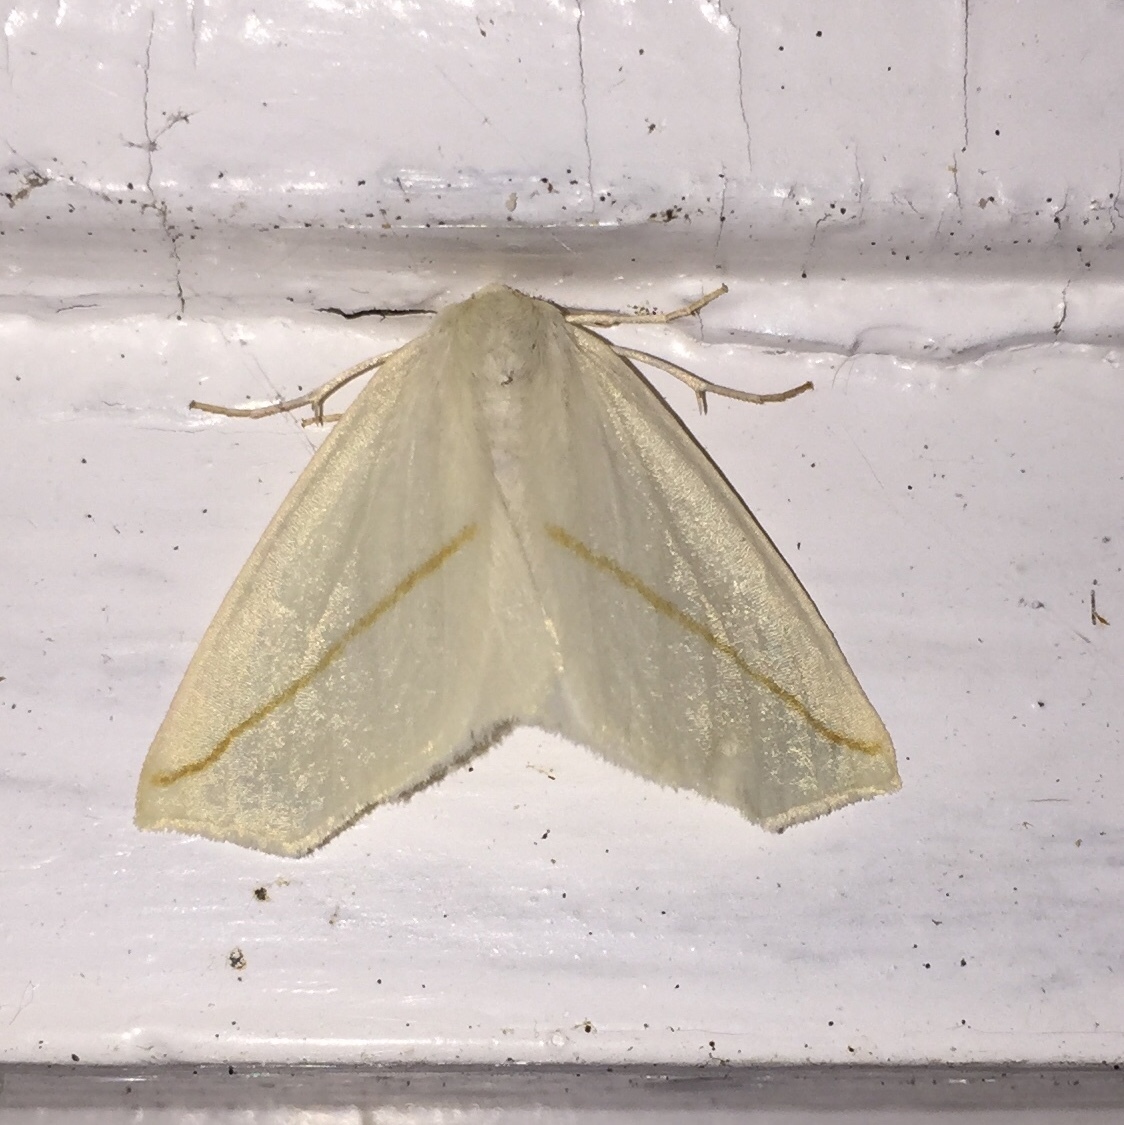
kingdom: Animalia
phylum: Arthropoda
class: Insecta
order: Lepidoptera
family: Geometridae
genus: Tetracis
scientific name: Tetracis cachexiata
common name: White slant-line
